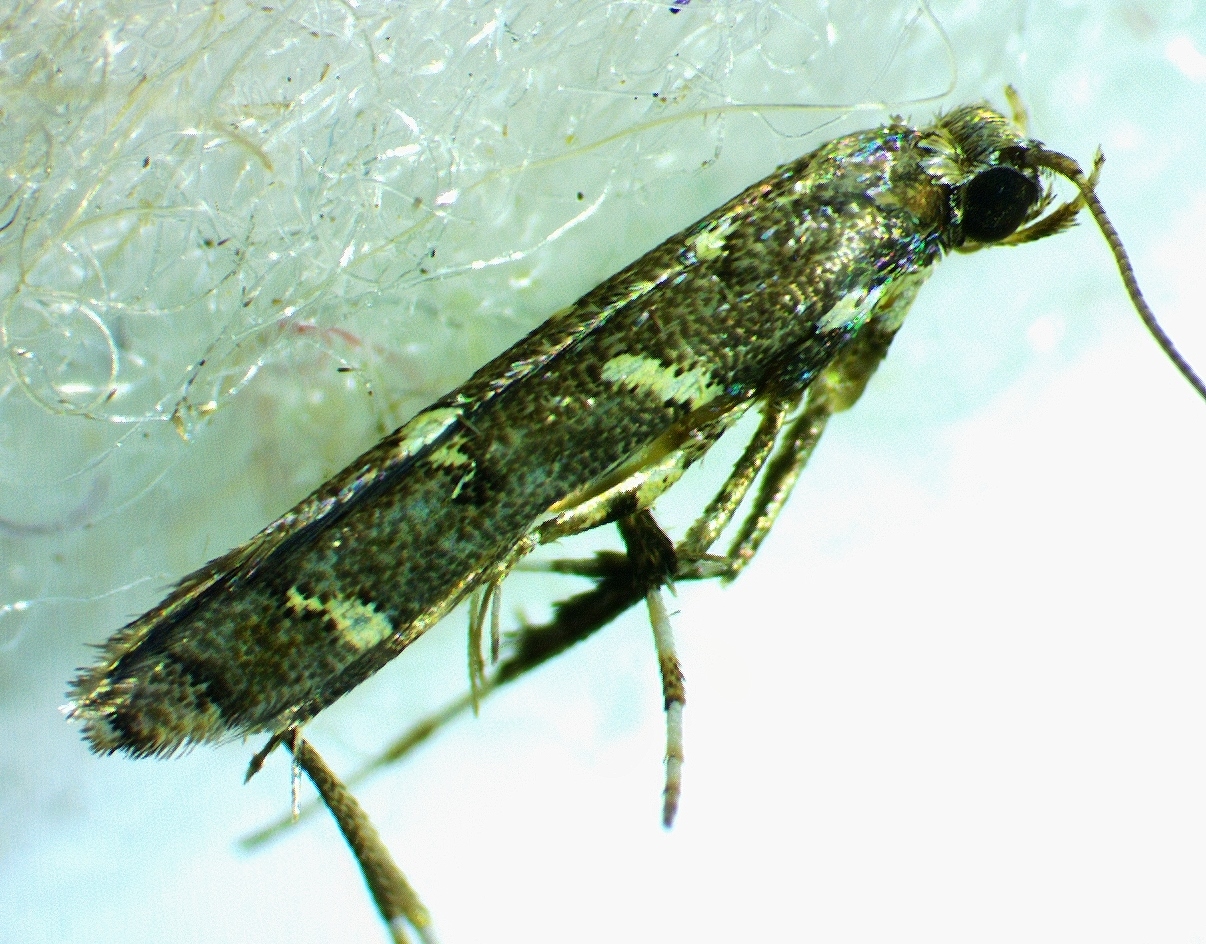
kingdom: Animalia
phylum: Arthropoda
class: Insecta
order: Lepidoptera
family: Gracillariidae
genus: Caloptilia
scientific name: Caloptilia triadicae
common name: Tallow leaf roller
